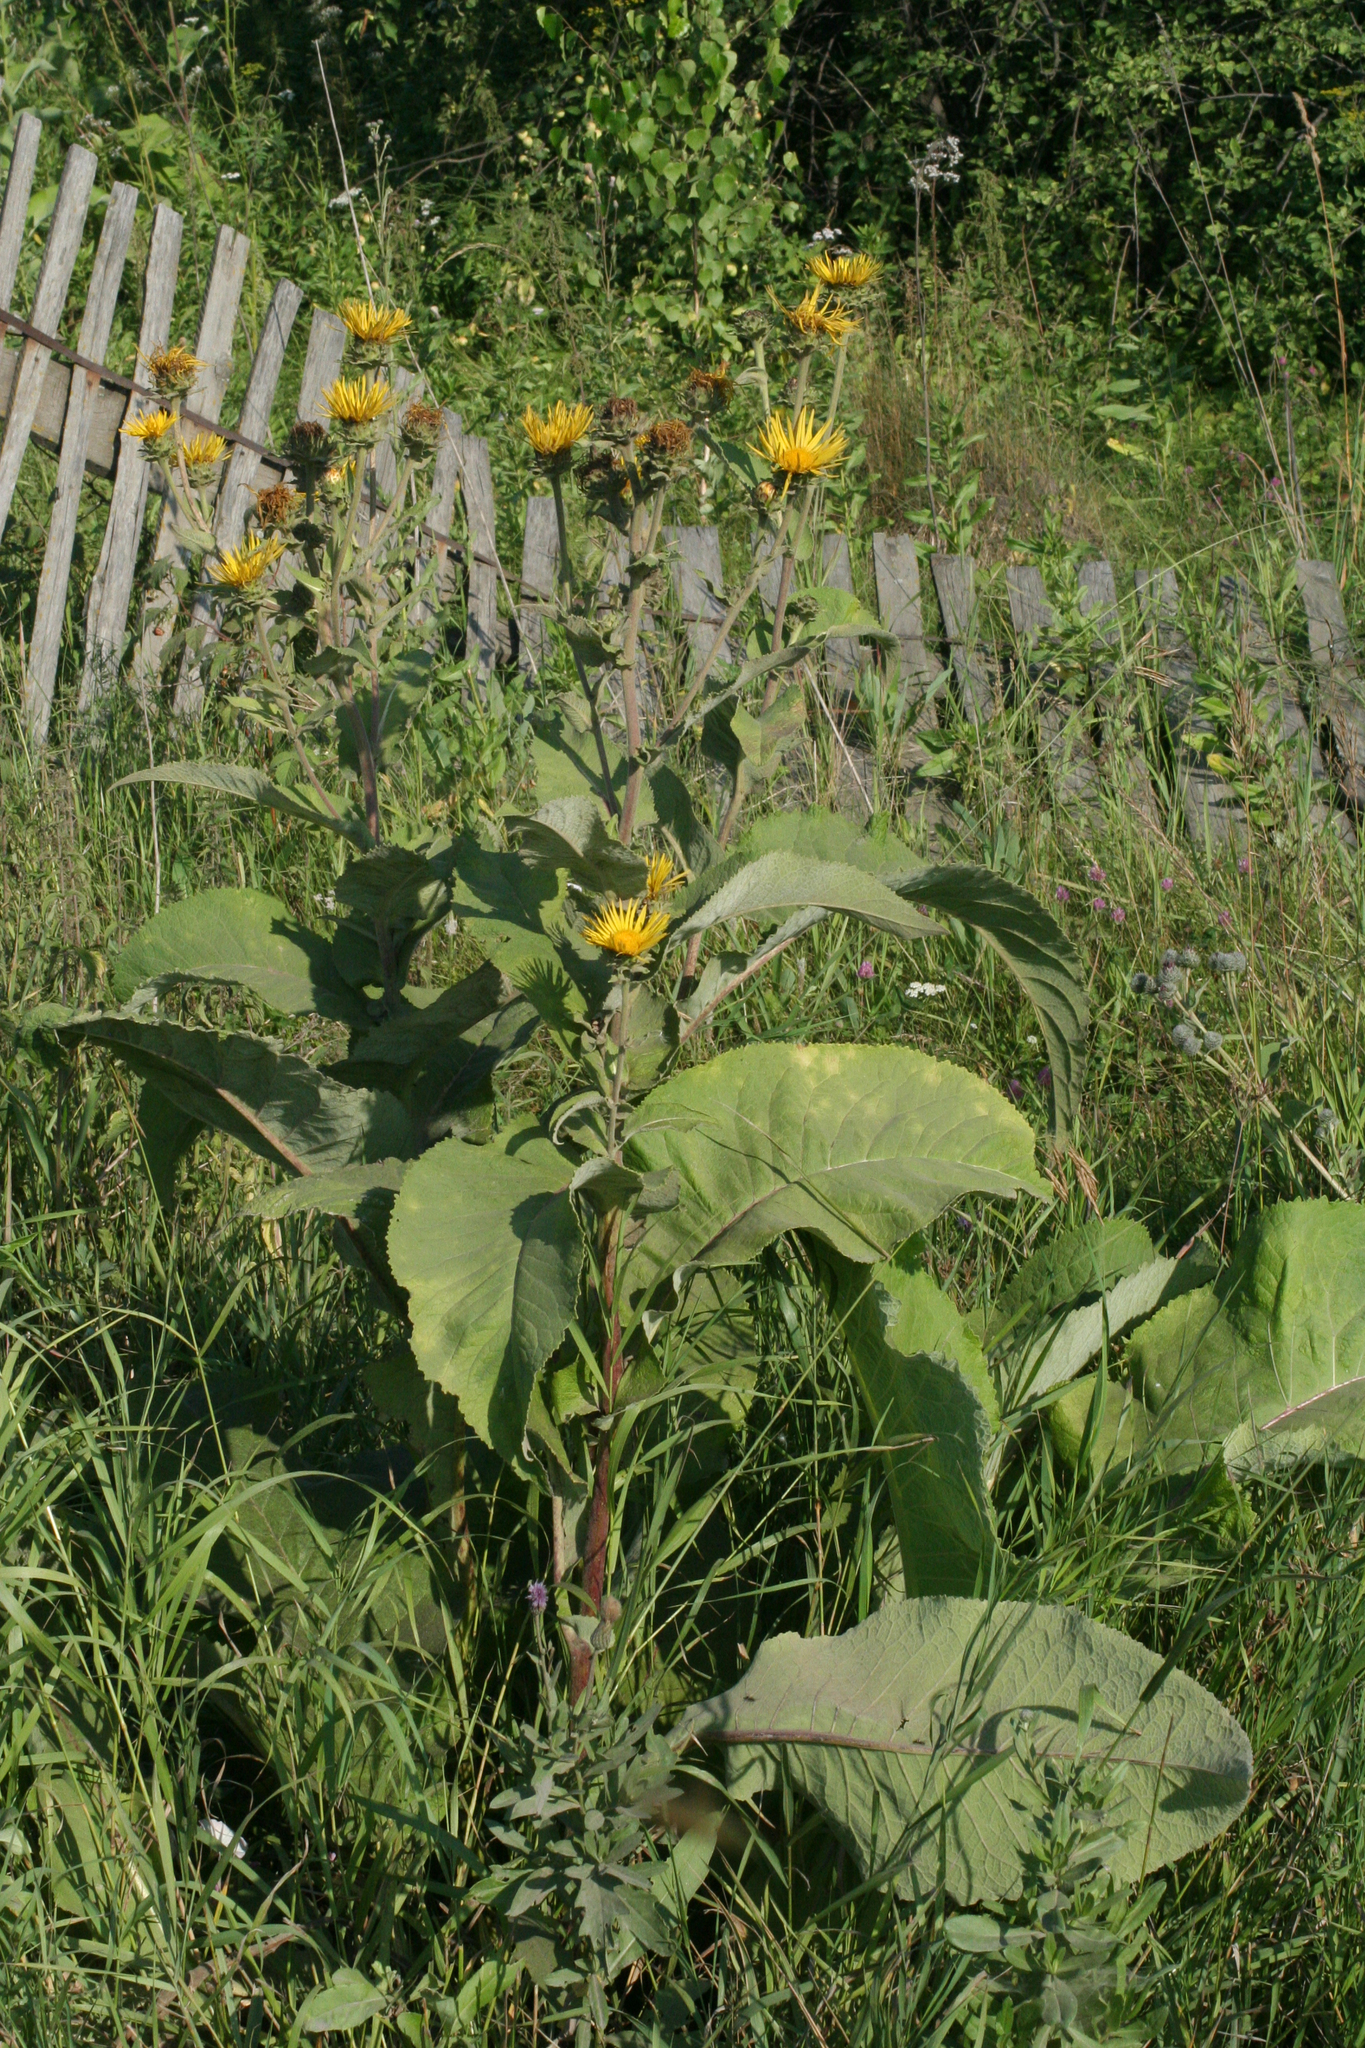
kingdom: Plantae
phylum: Tracheophyta
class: Magnoliopsida
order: Asterales
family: Asteraceae
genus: Inula
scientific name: Inula helenium
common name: Elecampane
